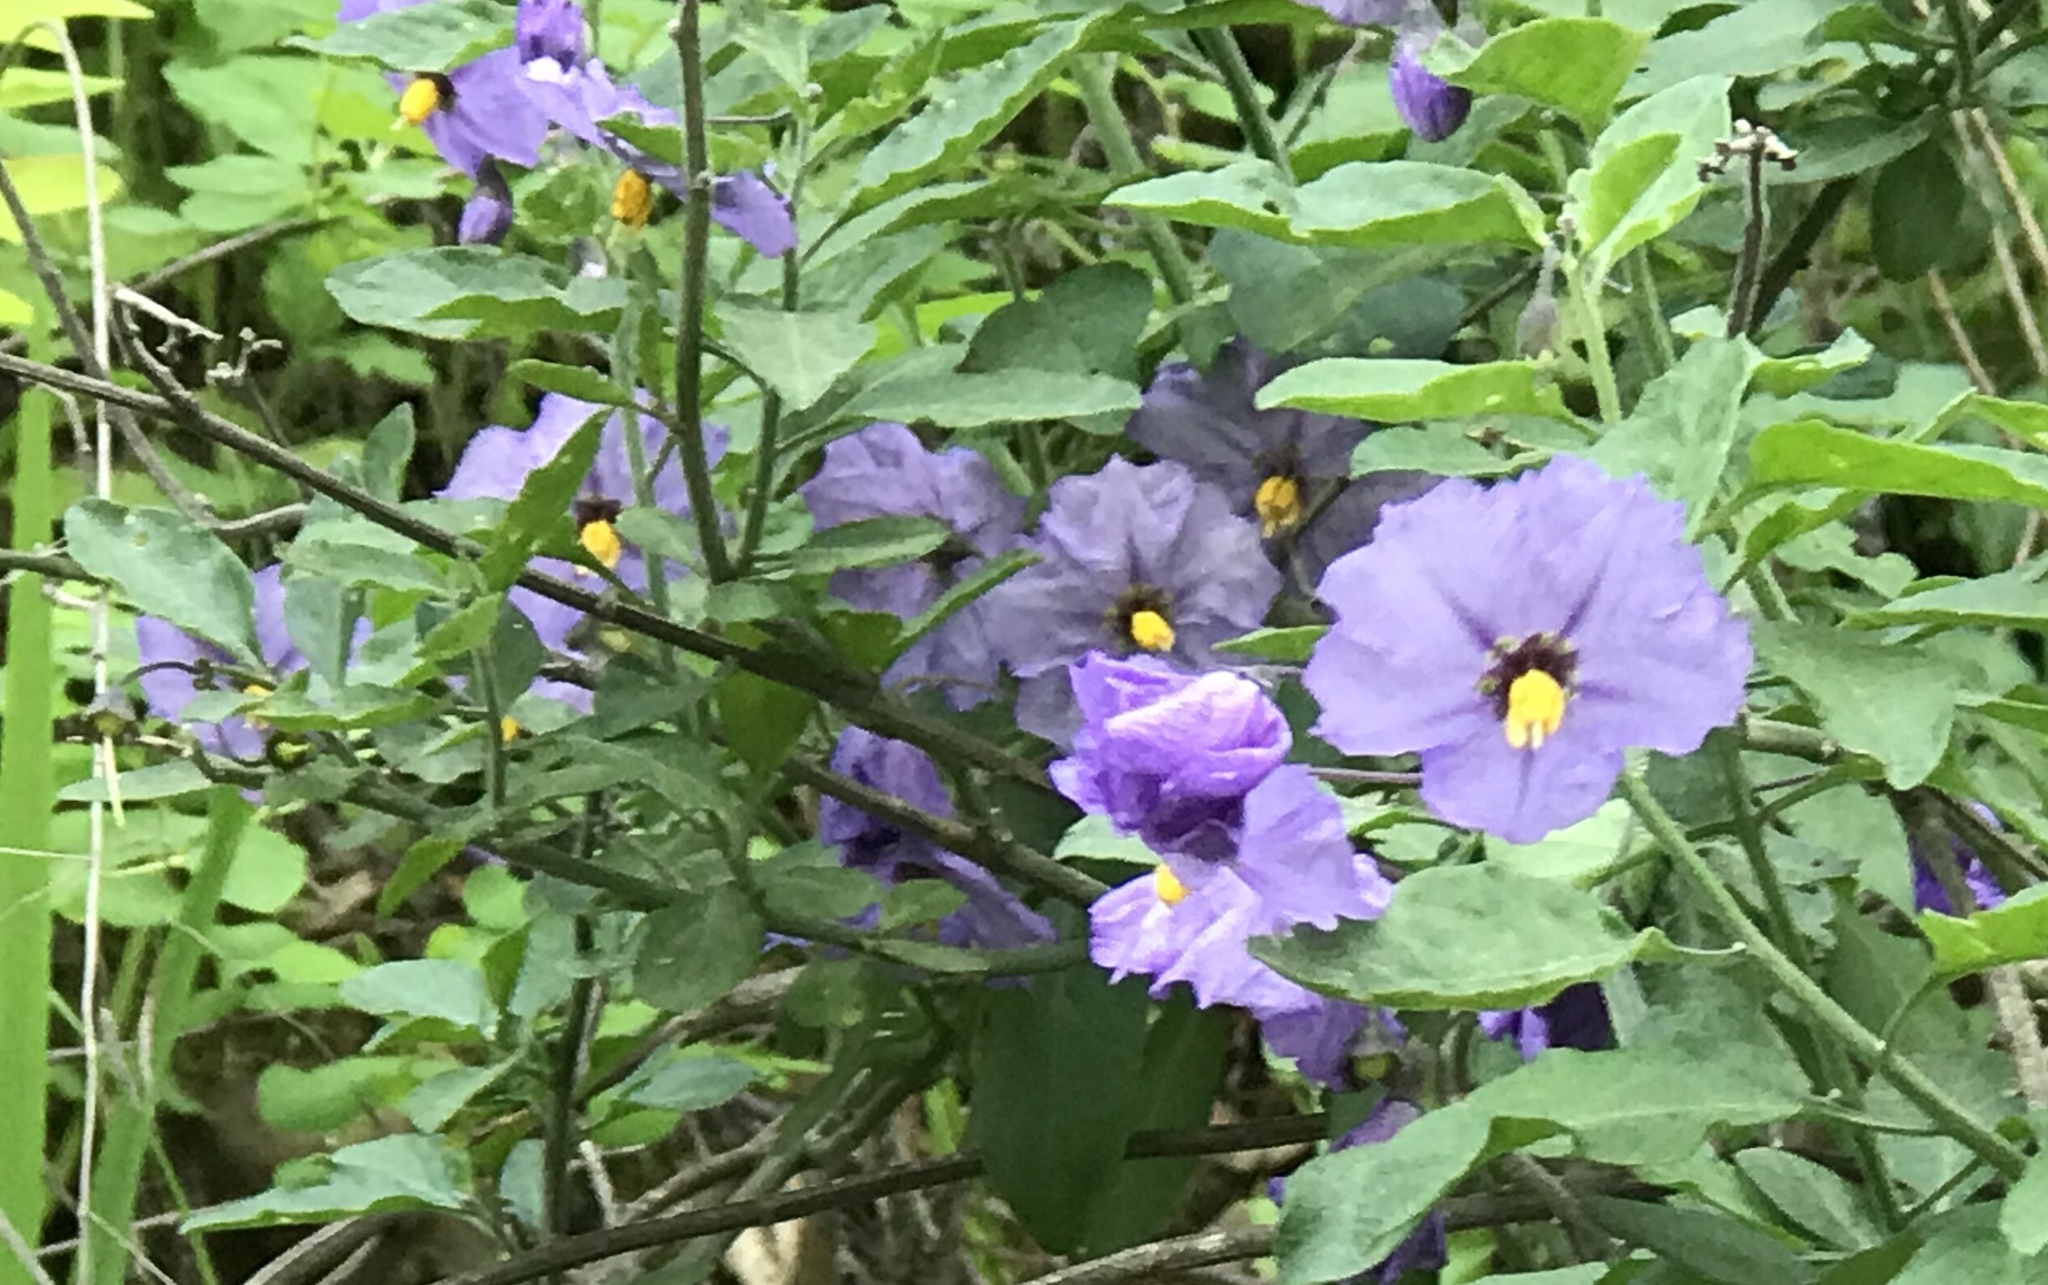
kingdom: Plantae
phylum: Tracheophyta
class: Magnoliopsida
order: Solanales
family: Solanaceae
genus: Solanum
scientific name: Solanum umbelliferum
